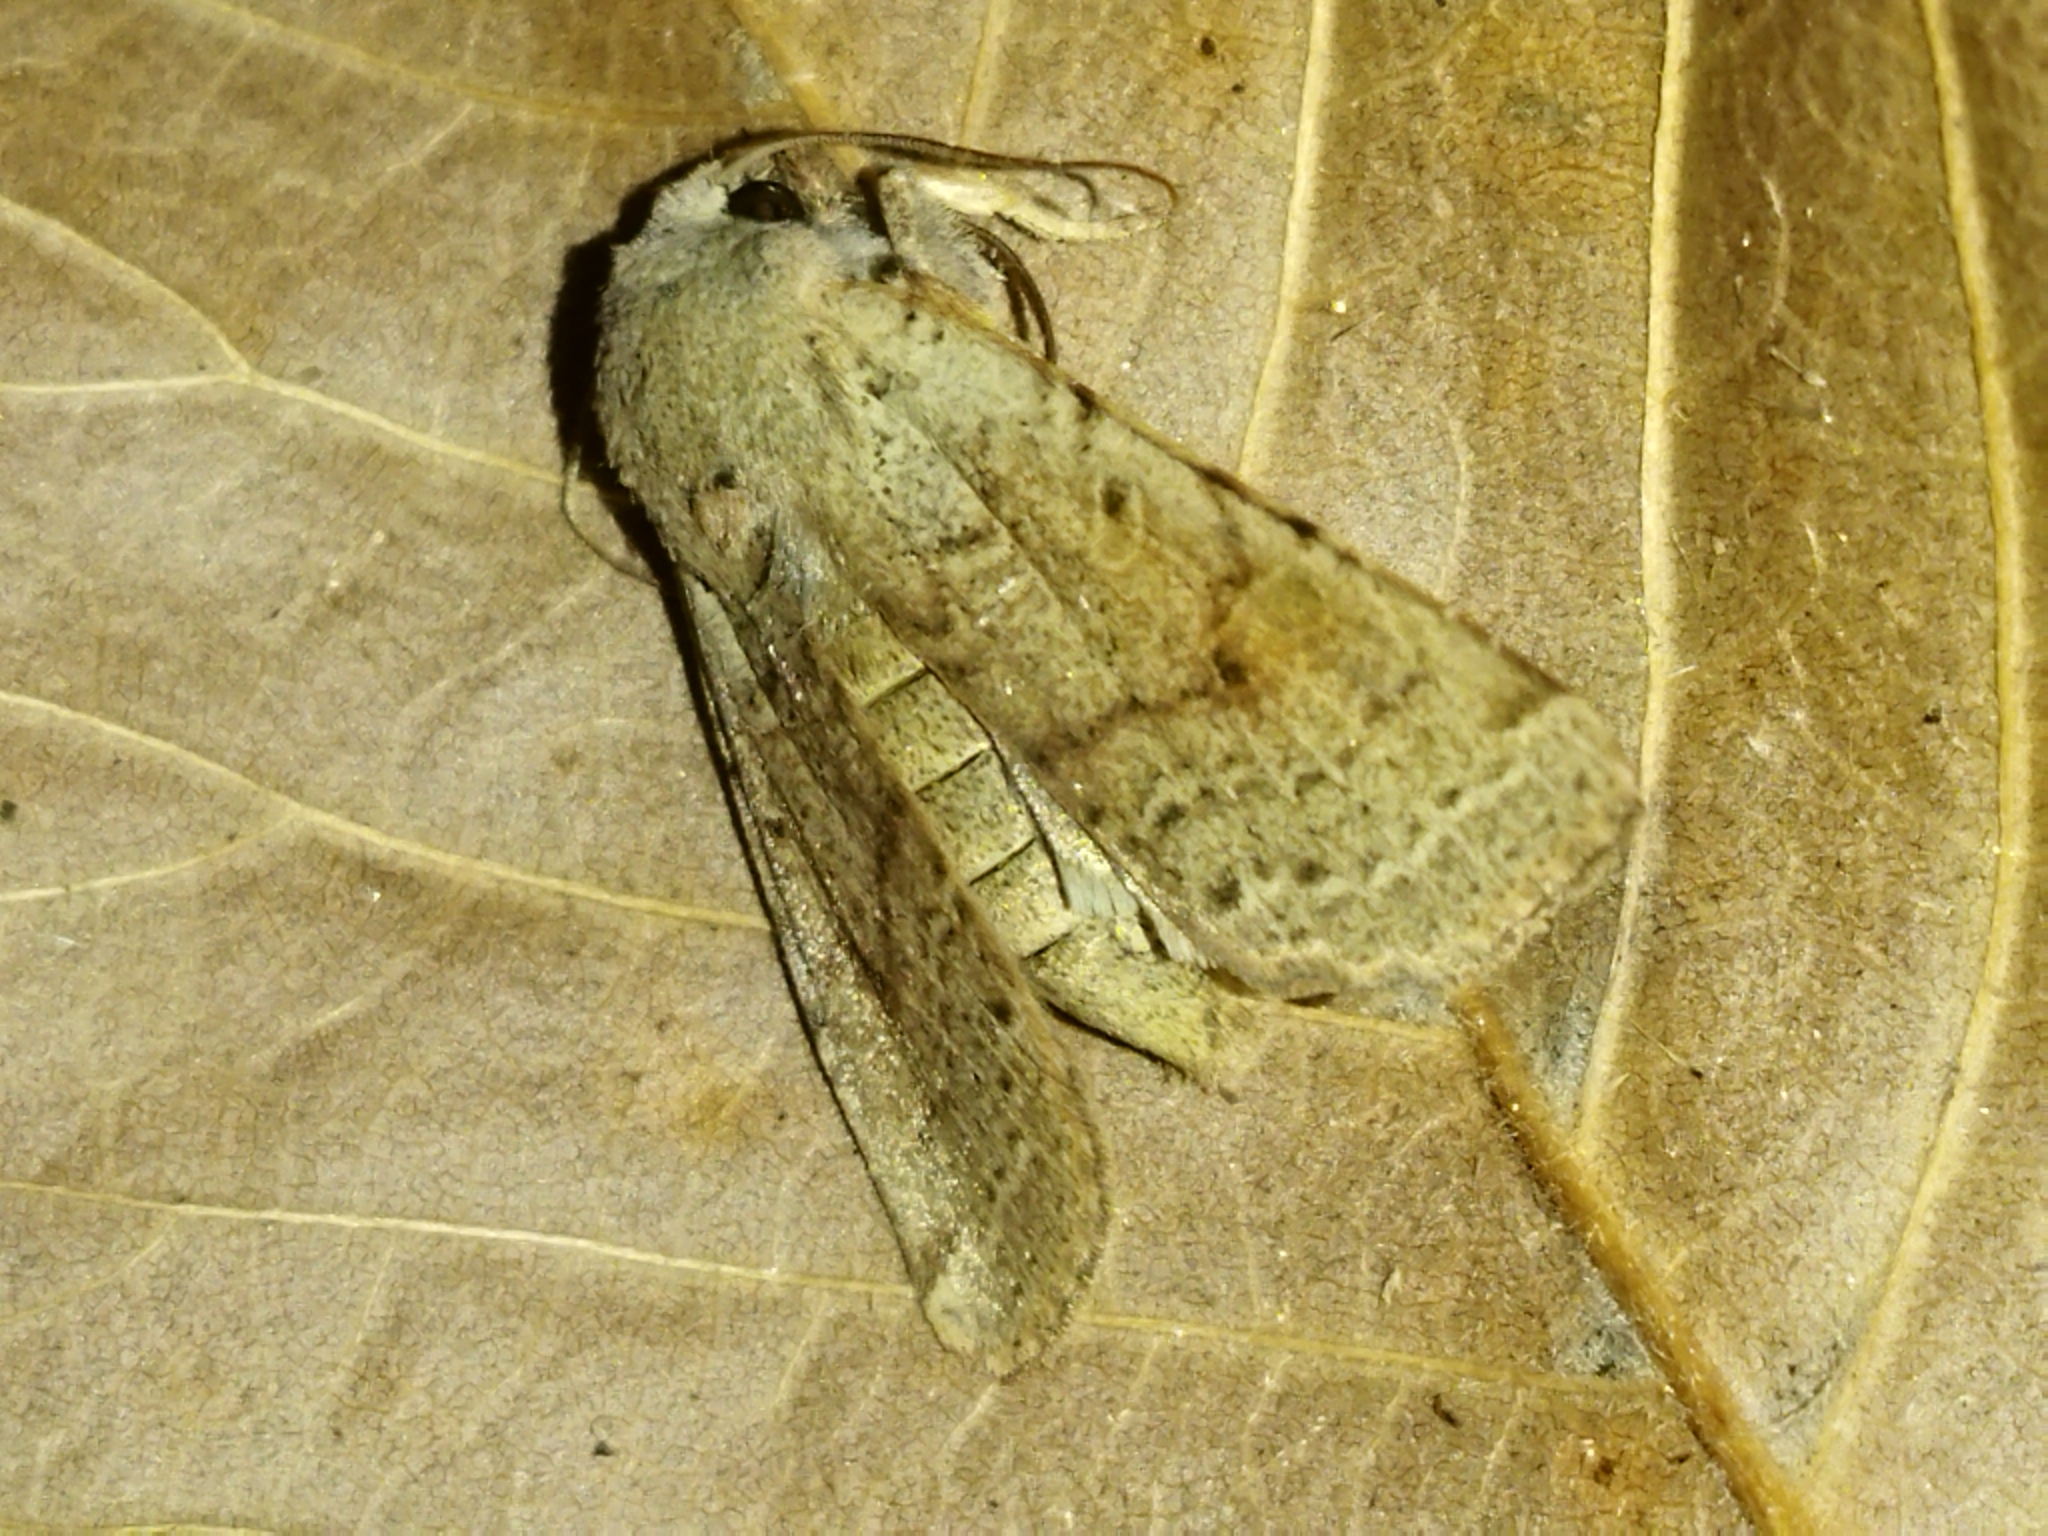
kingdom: Animalia
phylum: Arthropoda
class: Insecta
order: Lepidoptera
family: Noctuidae
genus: Agrochola
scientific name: Agrochola lychnidis
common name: Beaded chestnut
